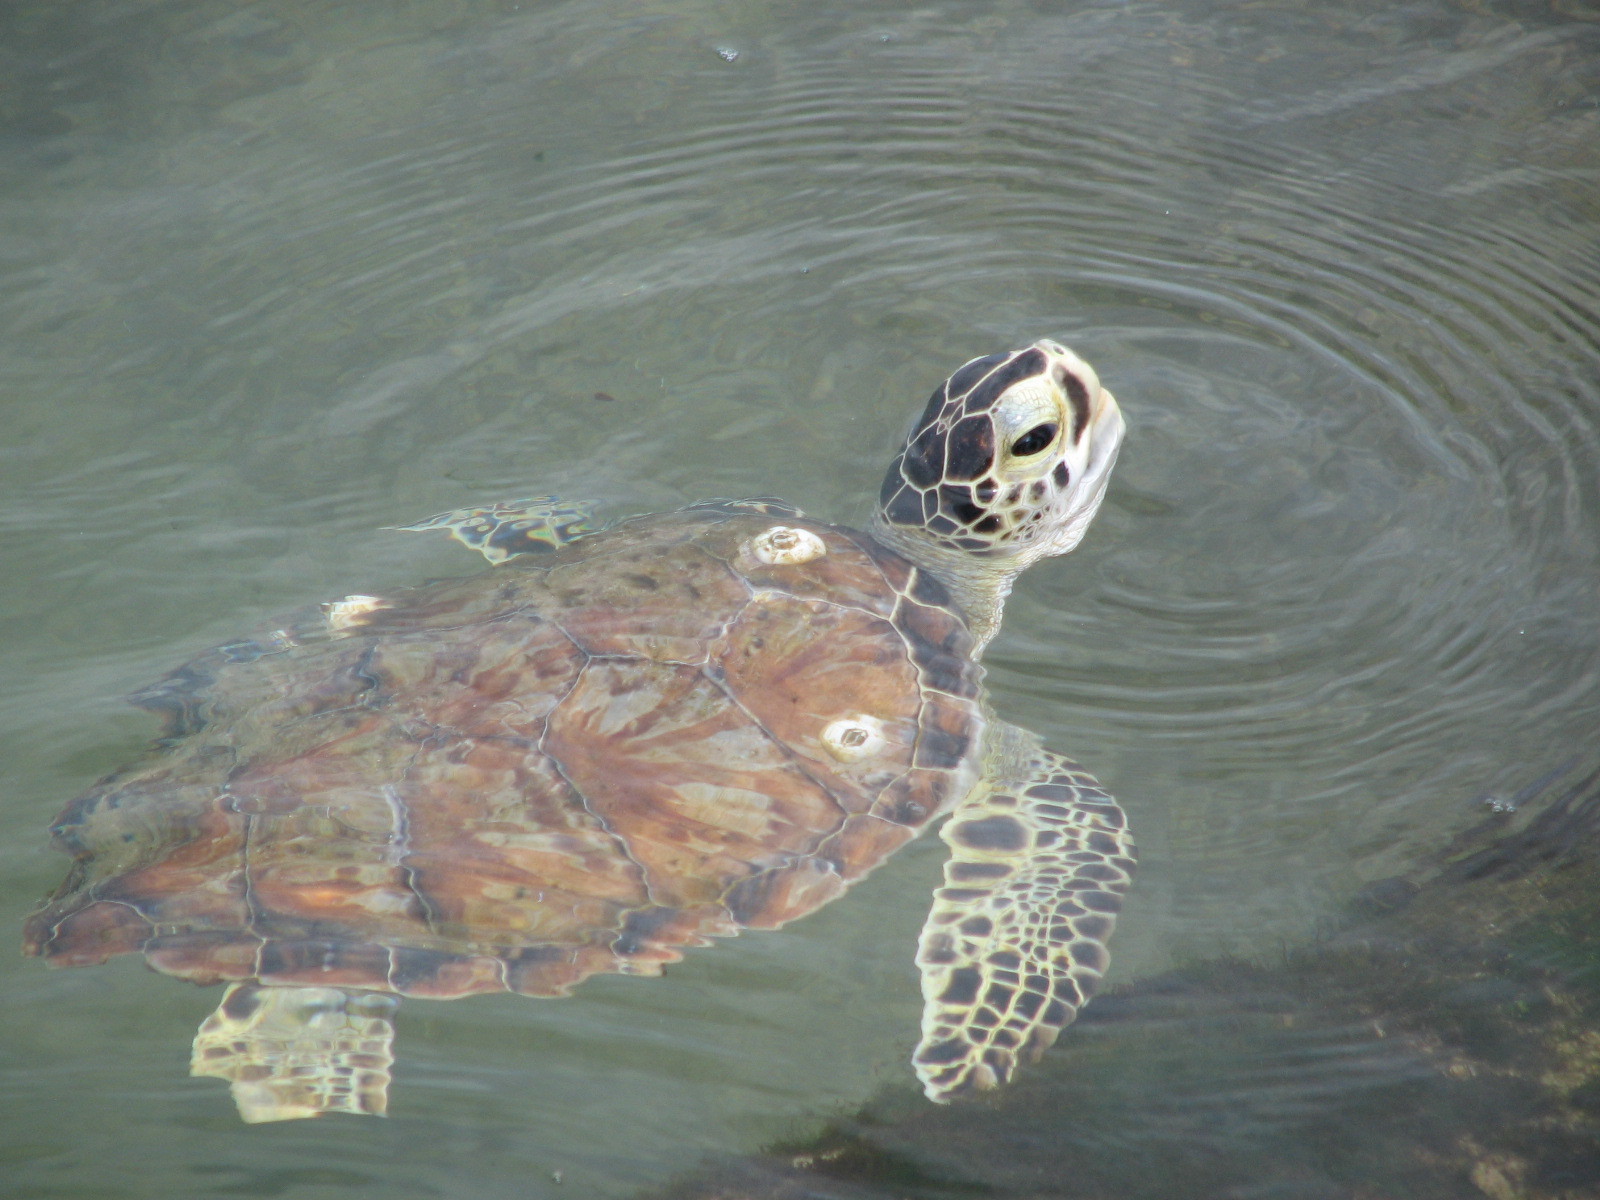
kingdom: Animalia
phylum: Chordata
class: Testudines
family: Cheloniidae
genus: Chelonia
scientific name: Chelonia mydas
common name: Green turtle
